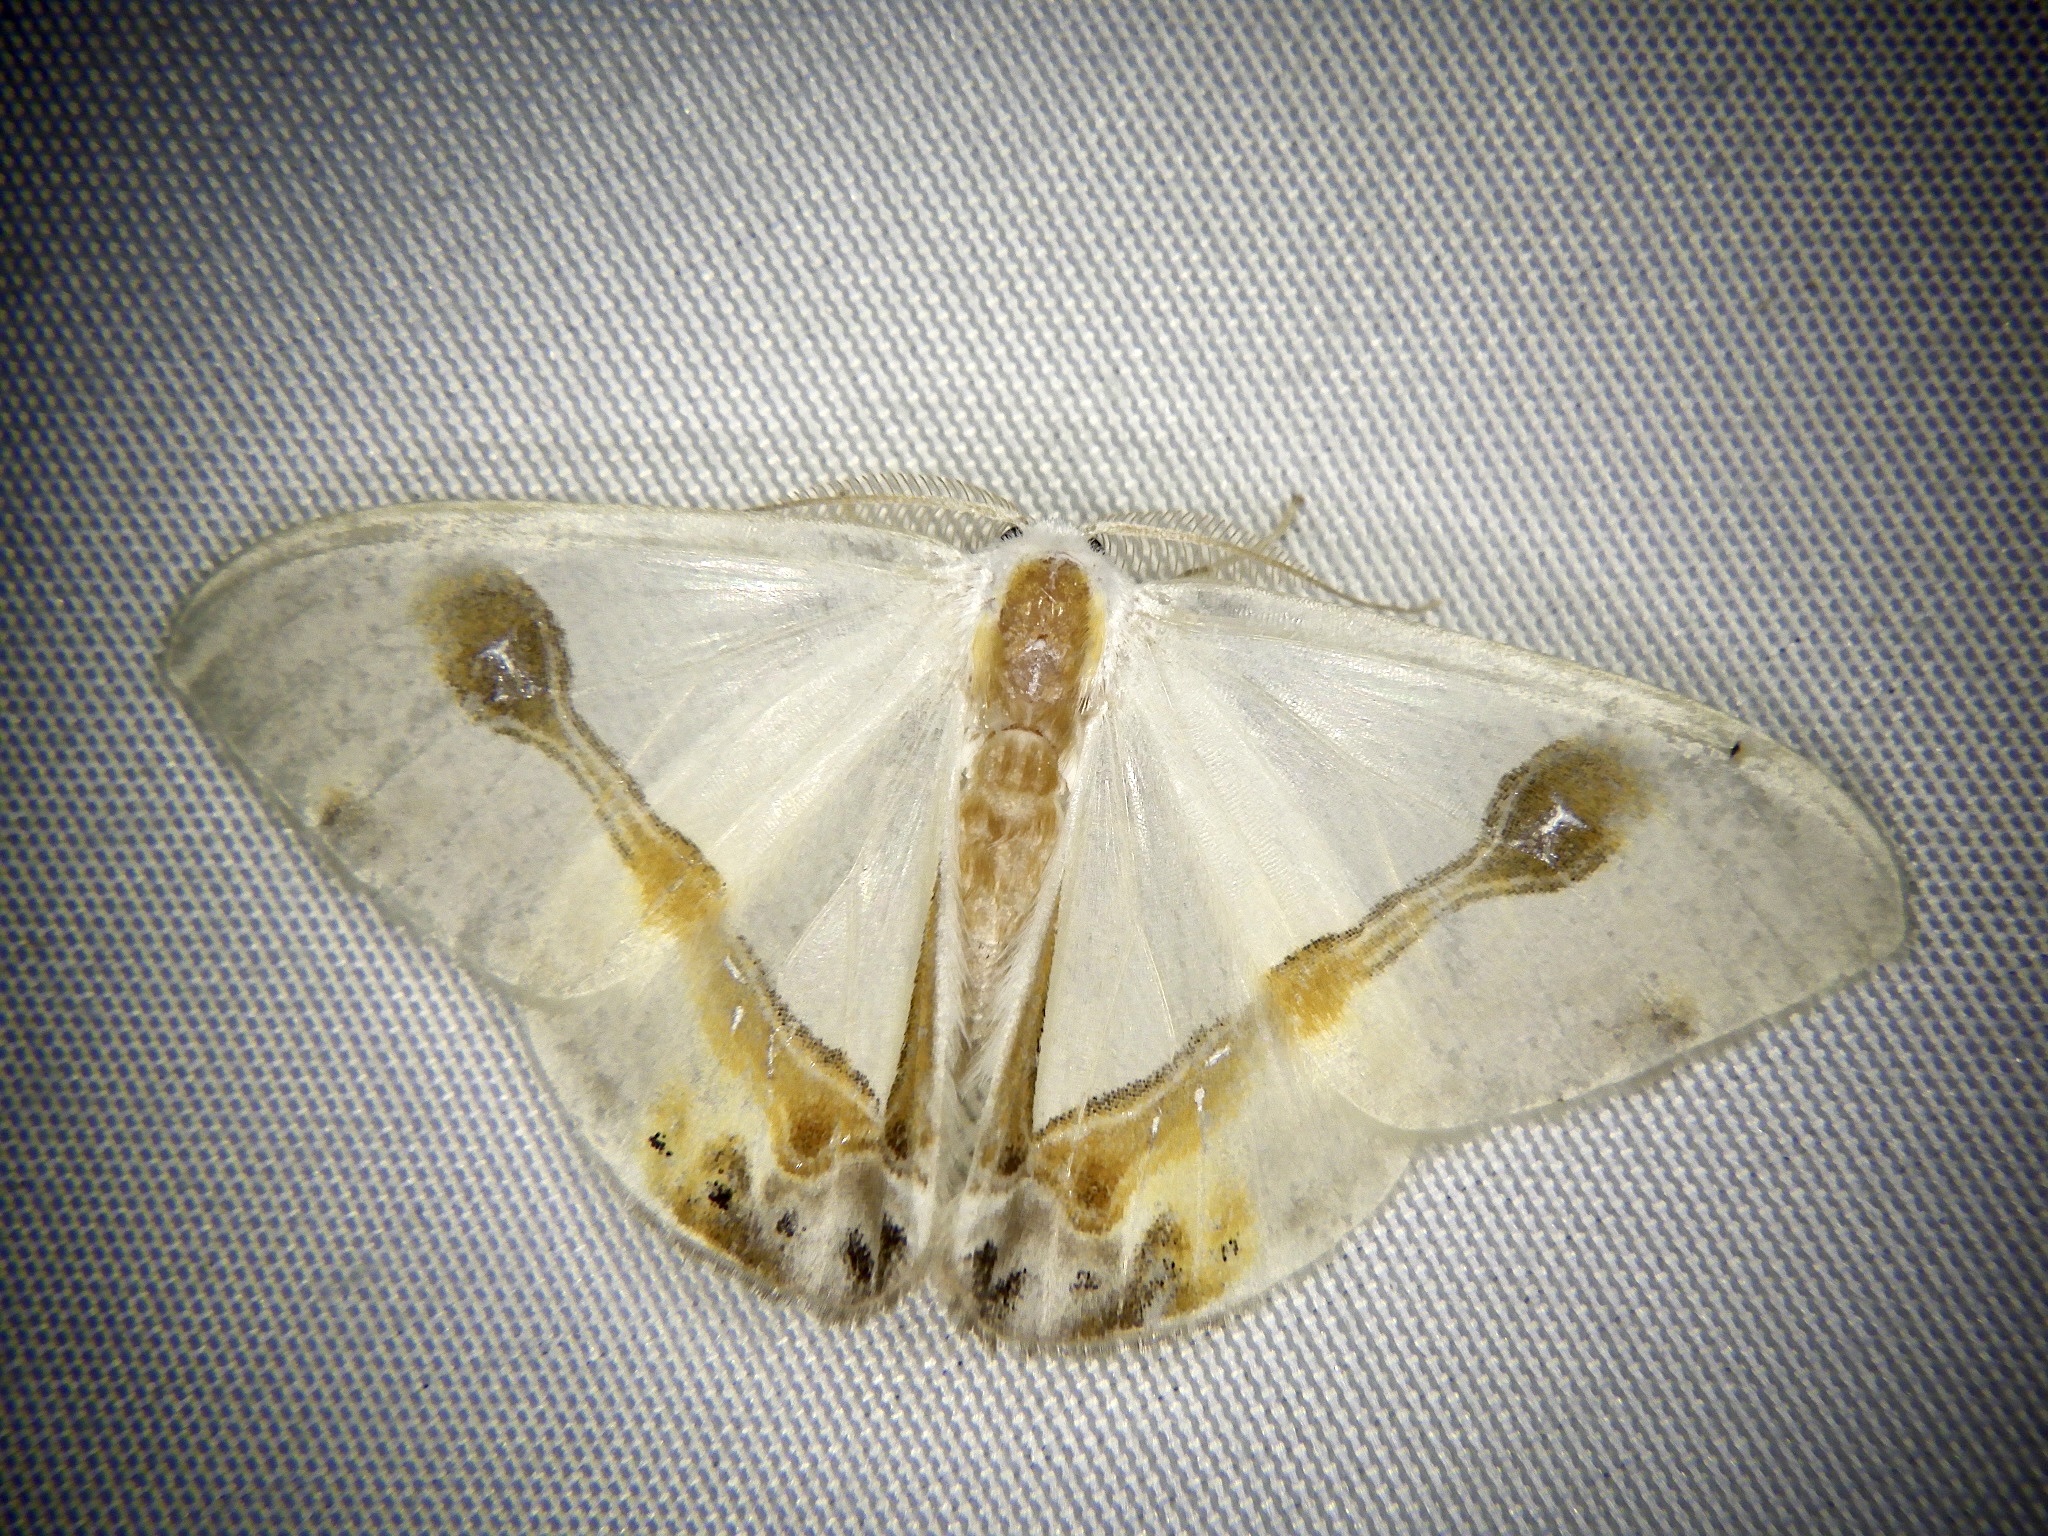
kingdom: Animalia
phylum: Arthropoda
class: Insecta
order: Lepidoptera
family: Drepanidae
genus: Macrocilix
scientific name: Macrocilix mysticata
